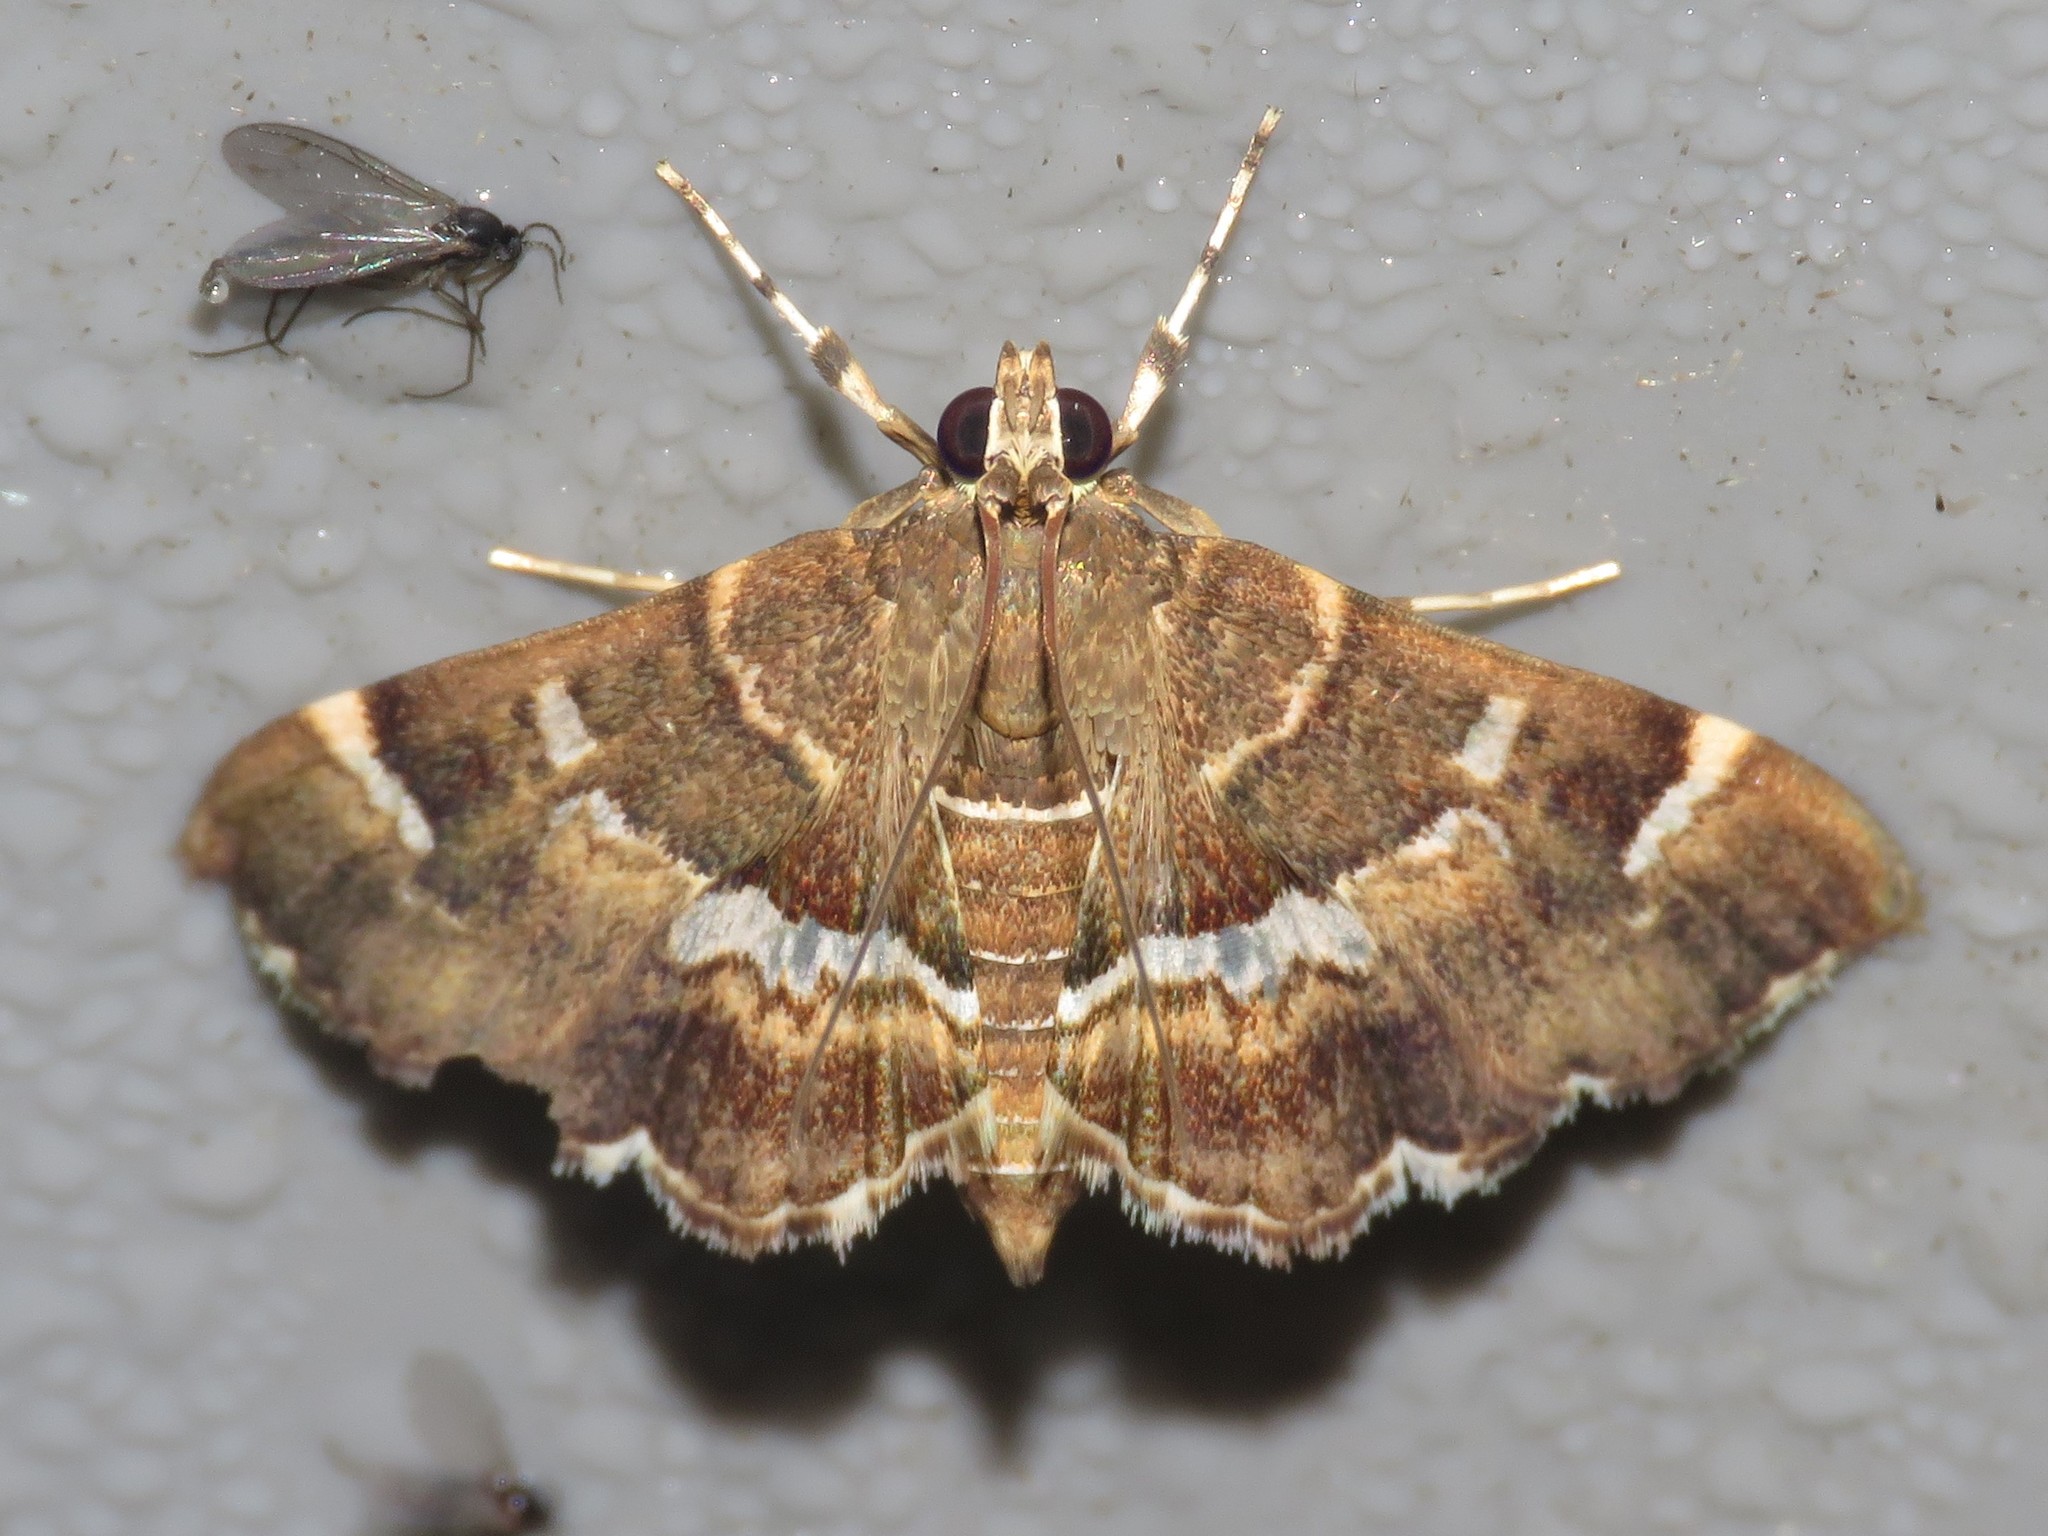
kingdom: Animalia
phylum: Arthropoda
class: Insecta
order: Lepidoptera
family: Crambidae
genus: Hymenia
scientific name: Hymenia perspectalis
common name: Spotted beet webworm
